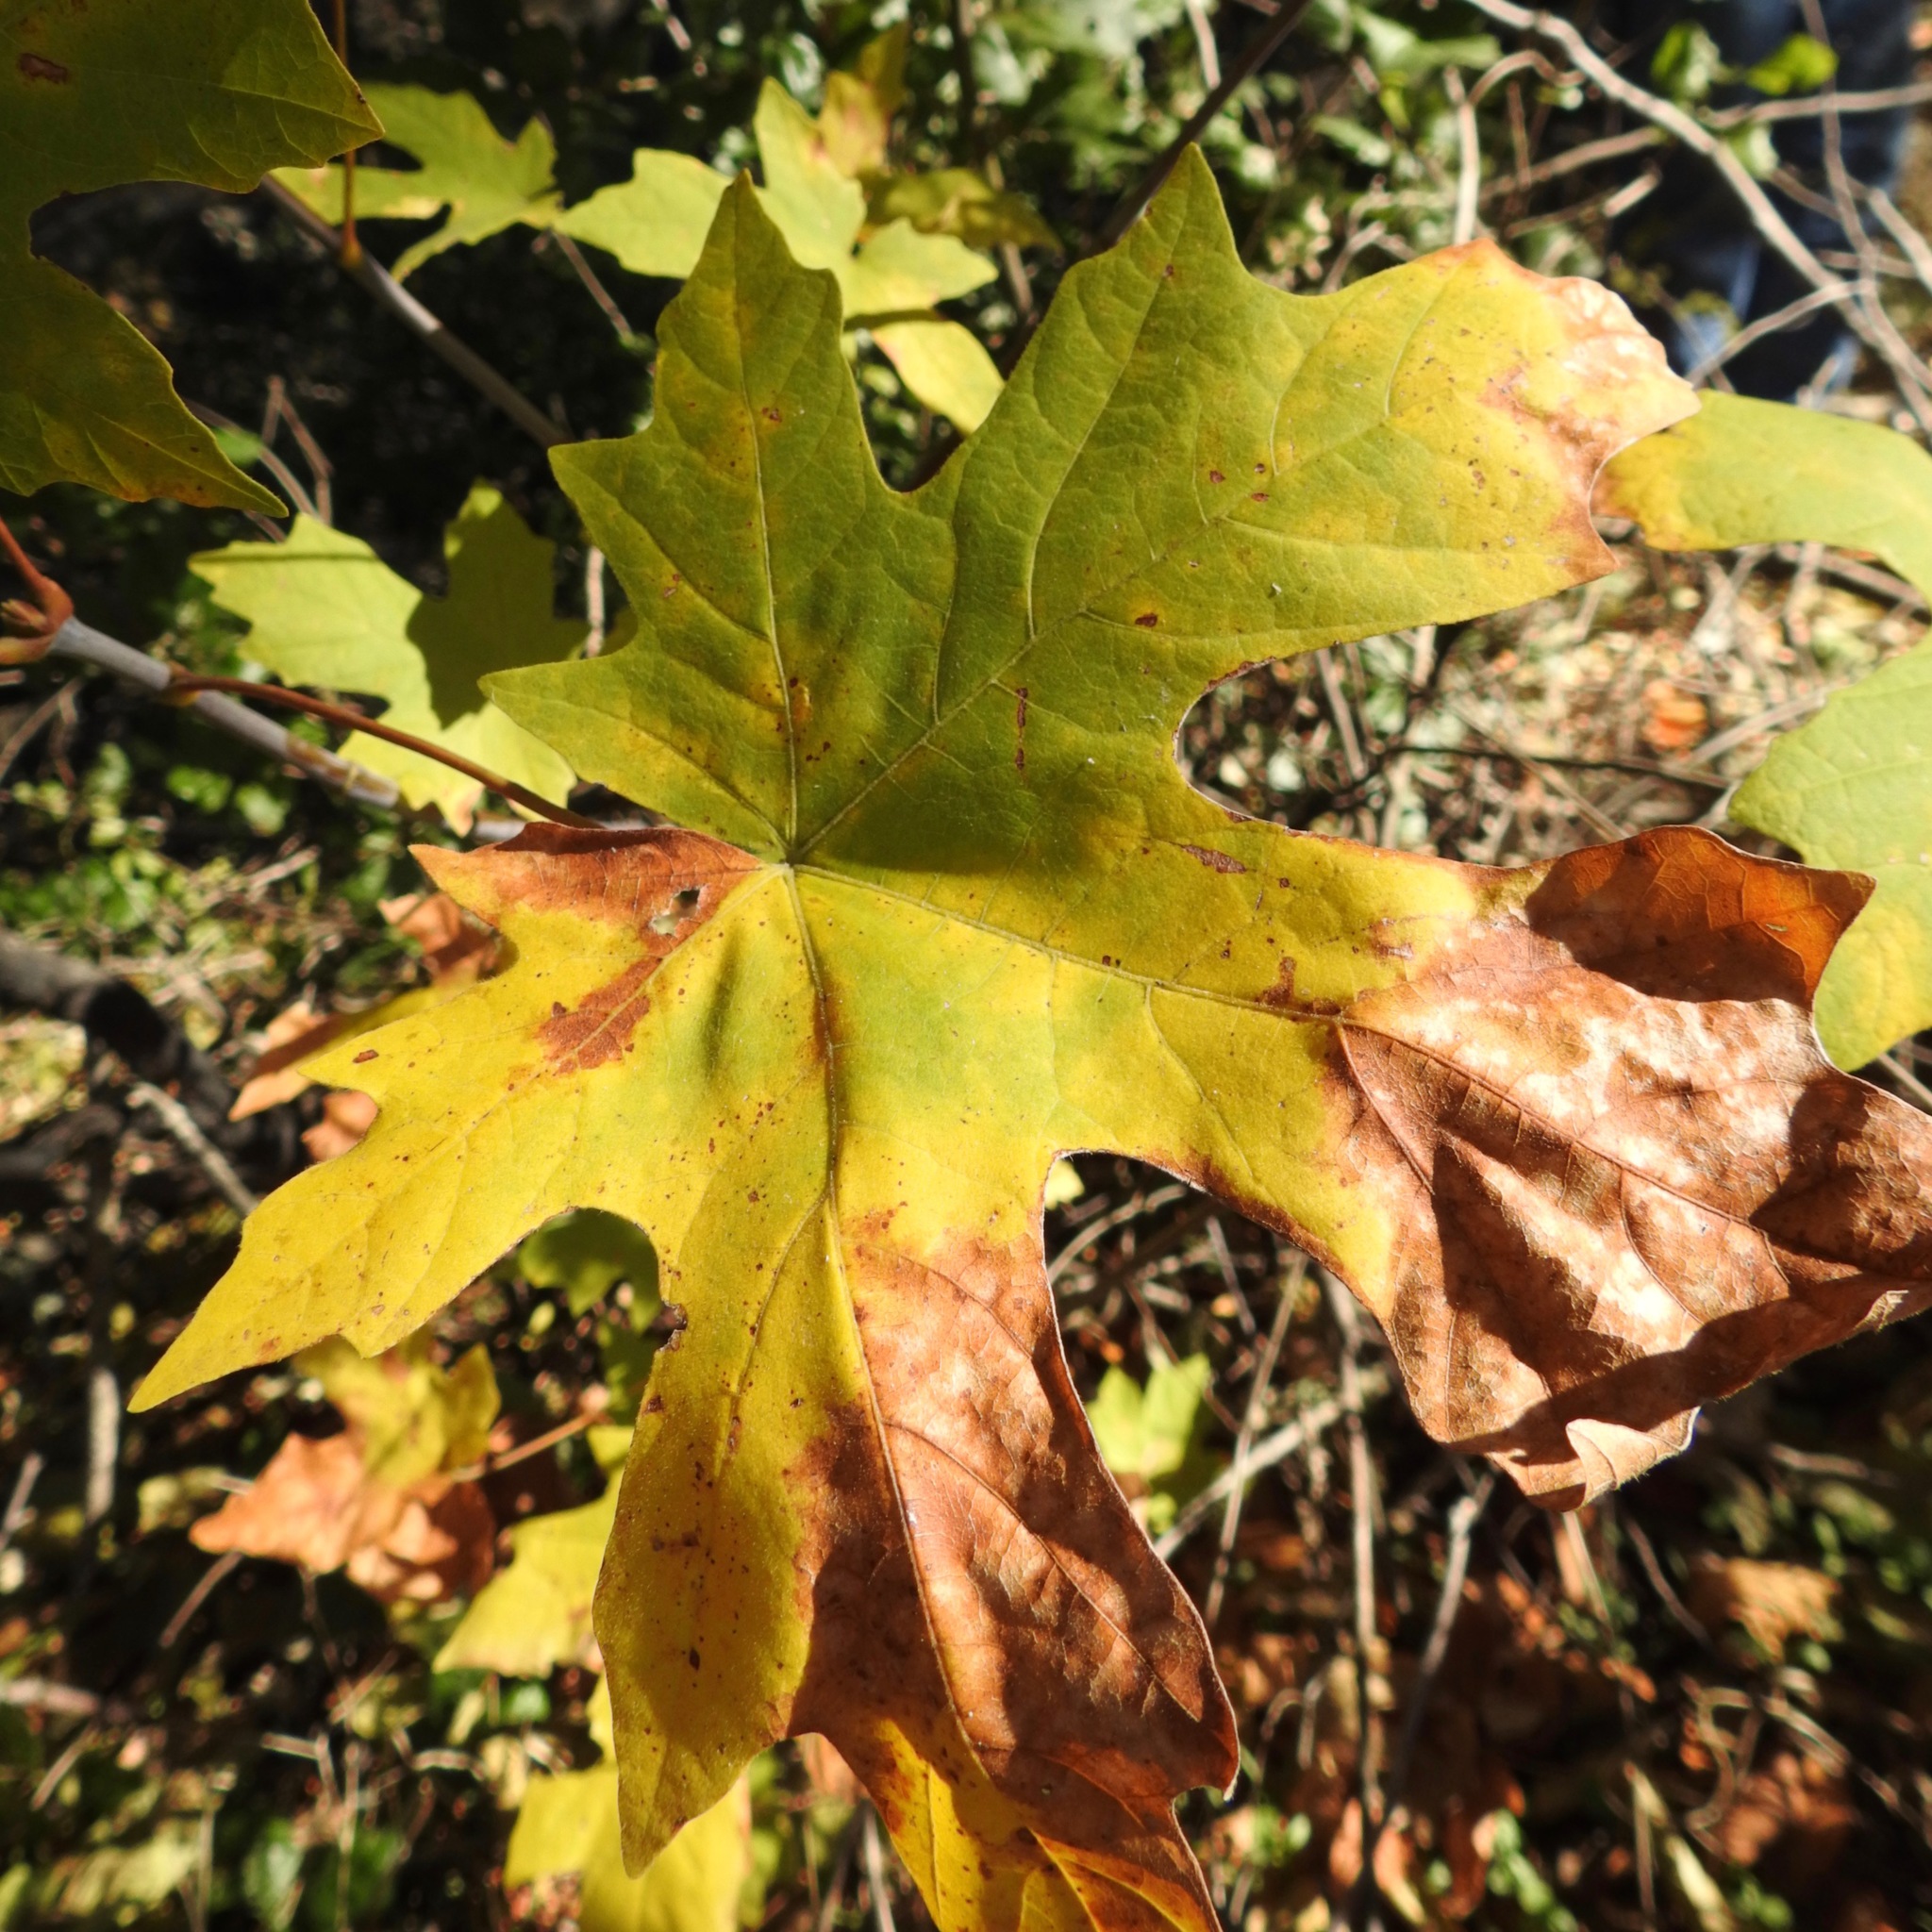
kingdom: Plantae
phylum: Tracheophyta
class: Magnoliopsida
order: Sapindales
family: Sapindaceae
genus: Acer
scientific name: Acer macrophyllum
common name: Oregon maple
